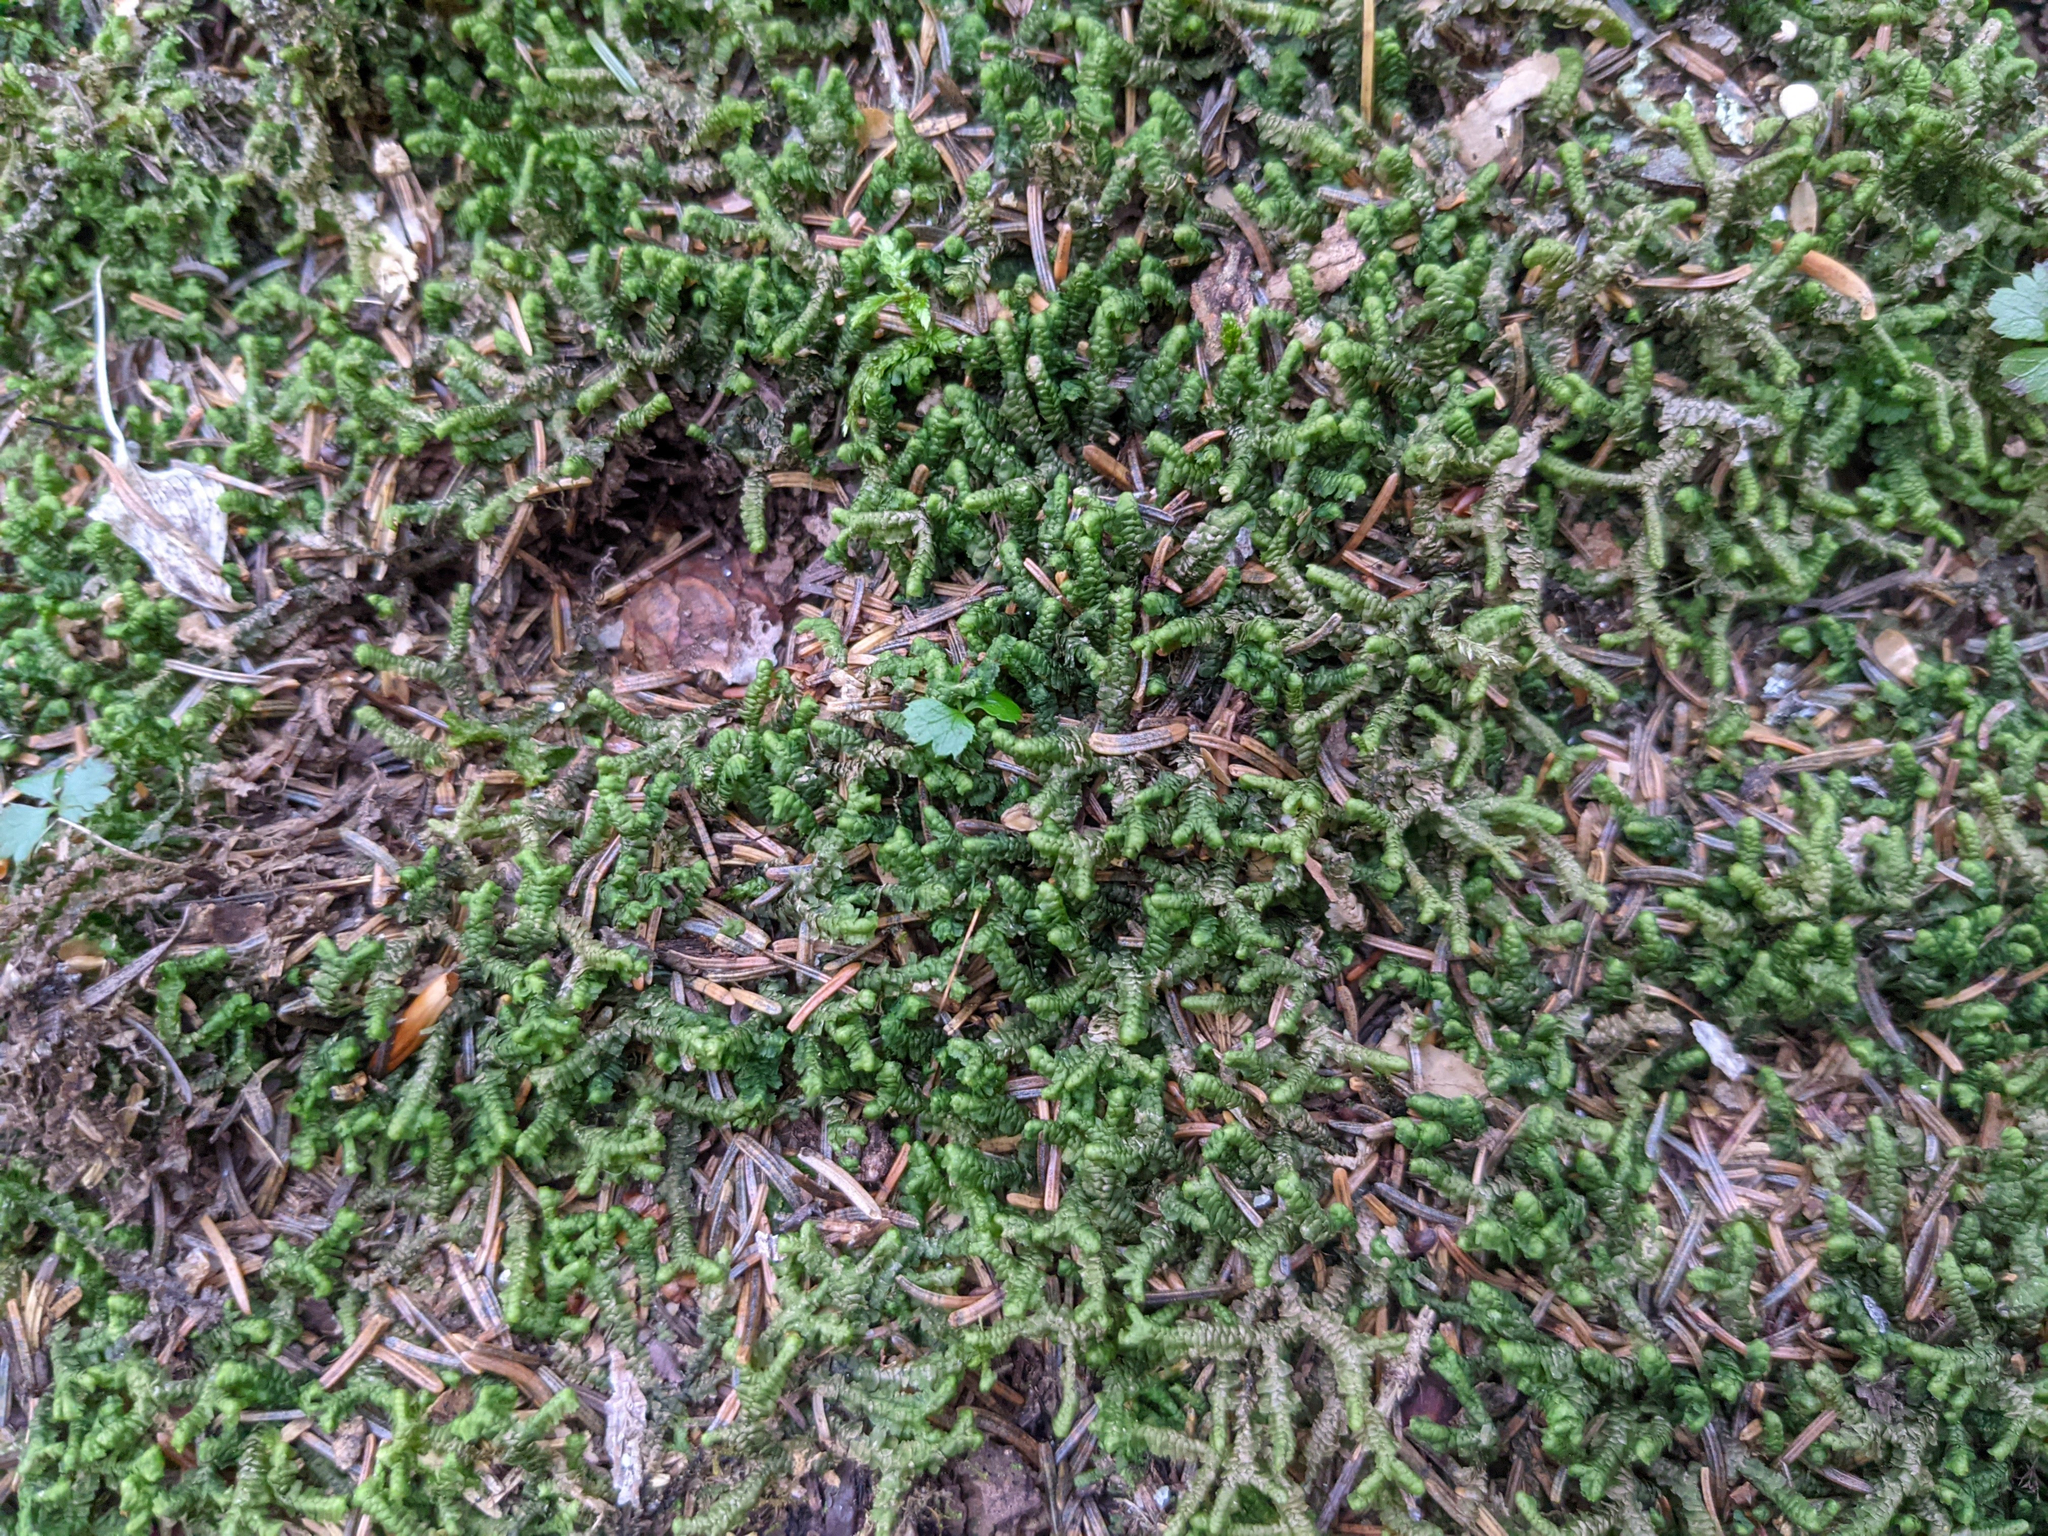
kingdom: Plantae
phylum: Marchantiophyta
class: Jungermanniopsida
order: Jungermanniales
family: Lepidoziaceae
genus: Bazzania
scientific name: Bazzania trilobata
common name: Three-lobed whipwort
